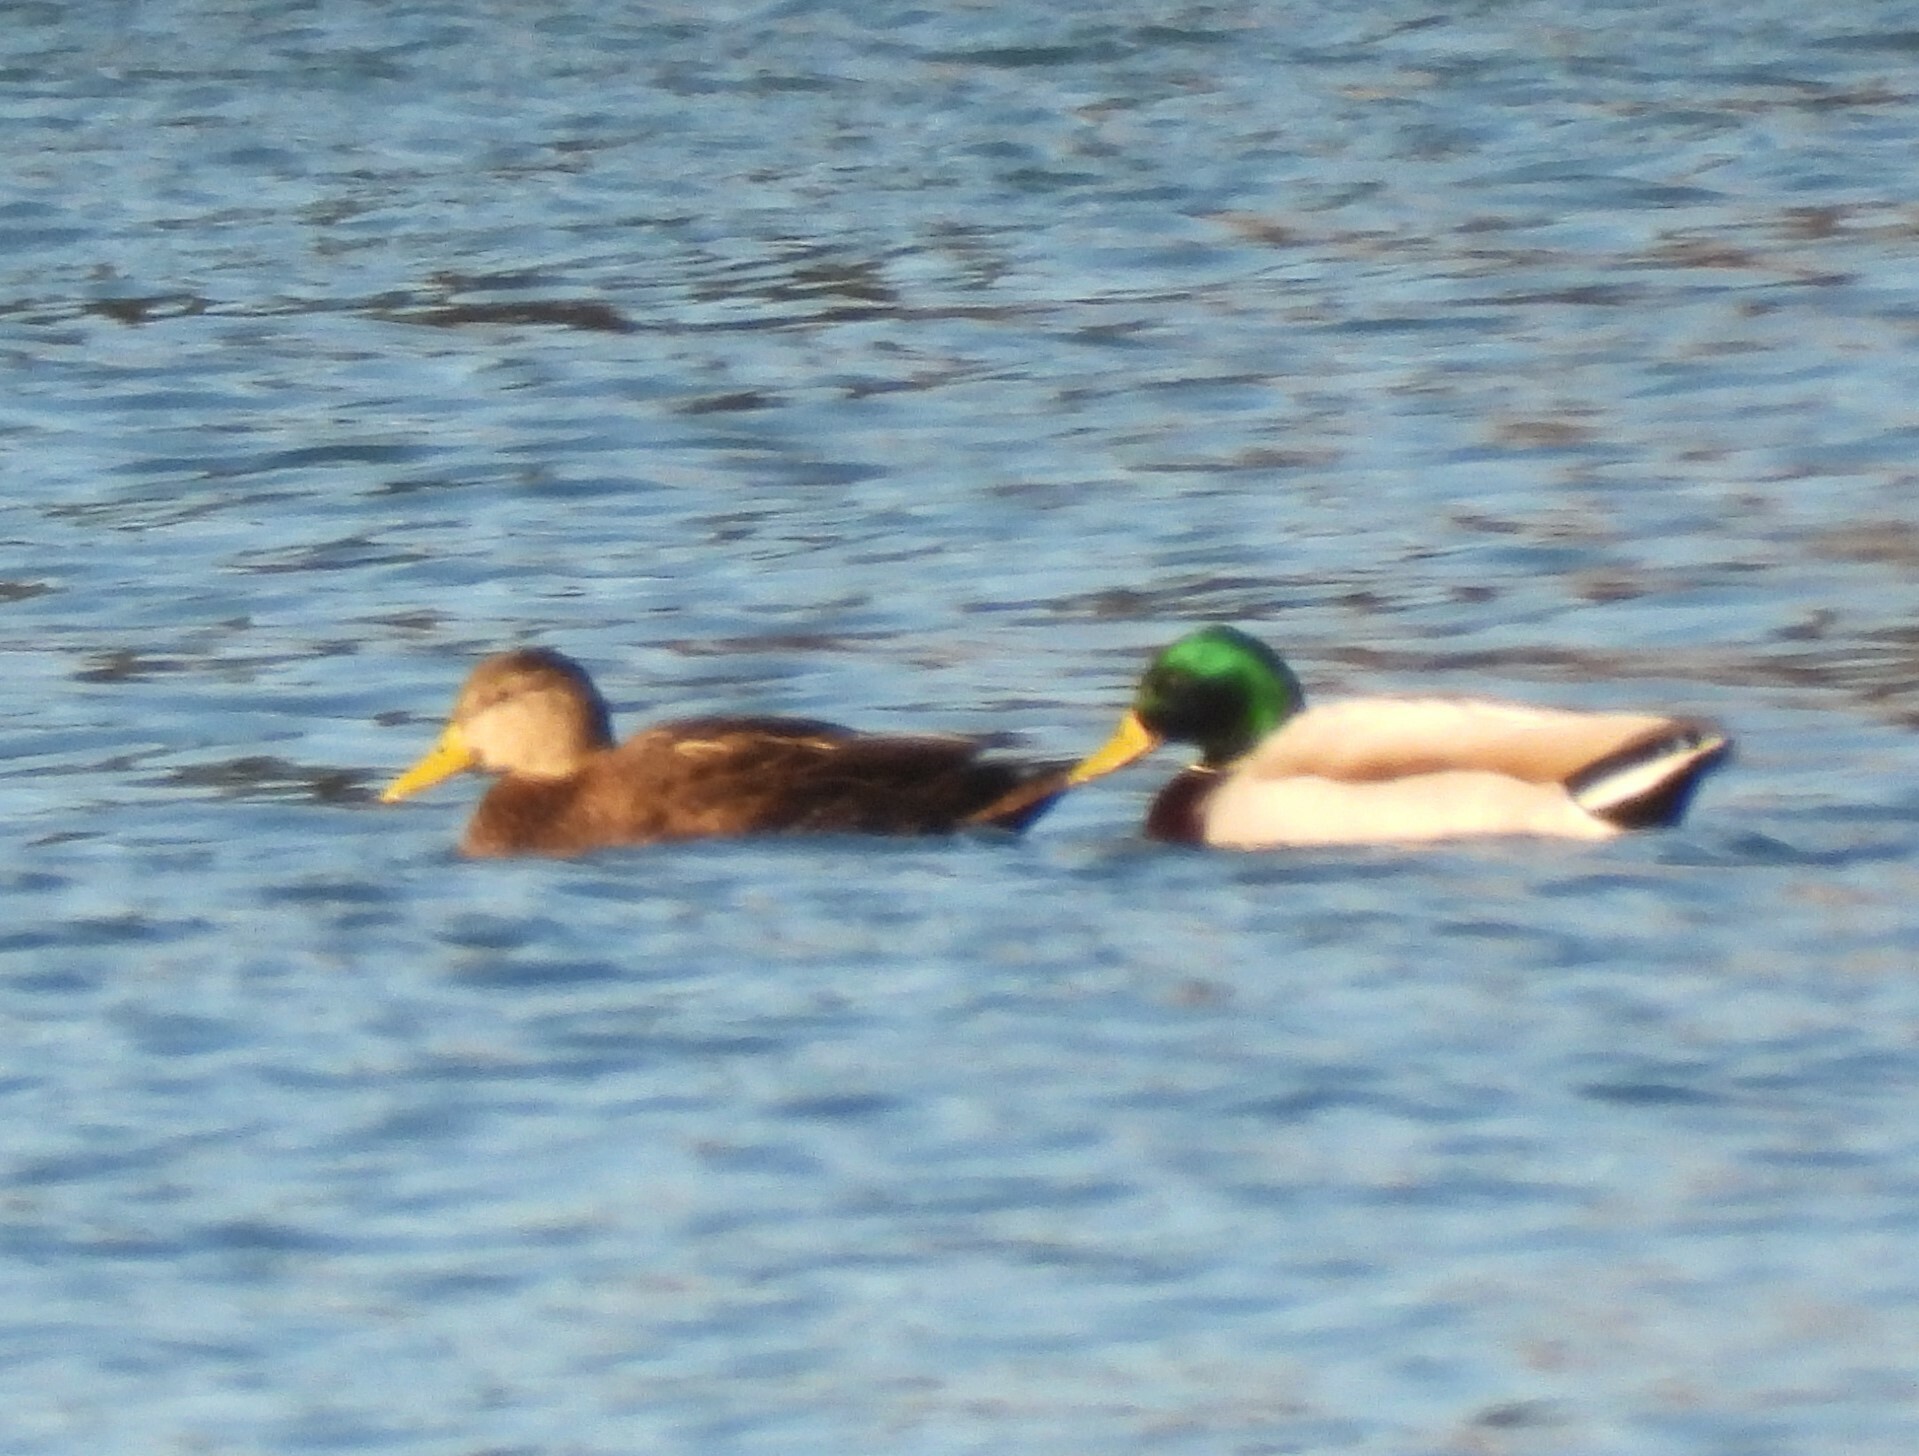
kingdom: Animalia
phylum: Chordata
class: Aves
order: Anseriformes
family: Anatidae
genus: Anas
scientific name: Anas rubripes
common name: American black duck
